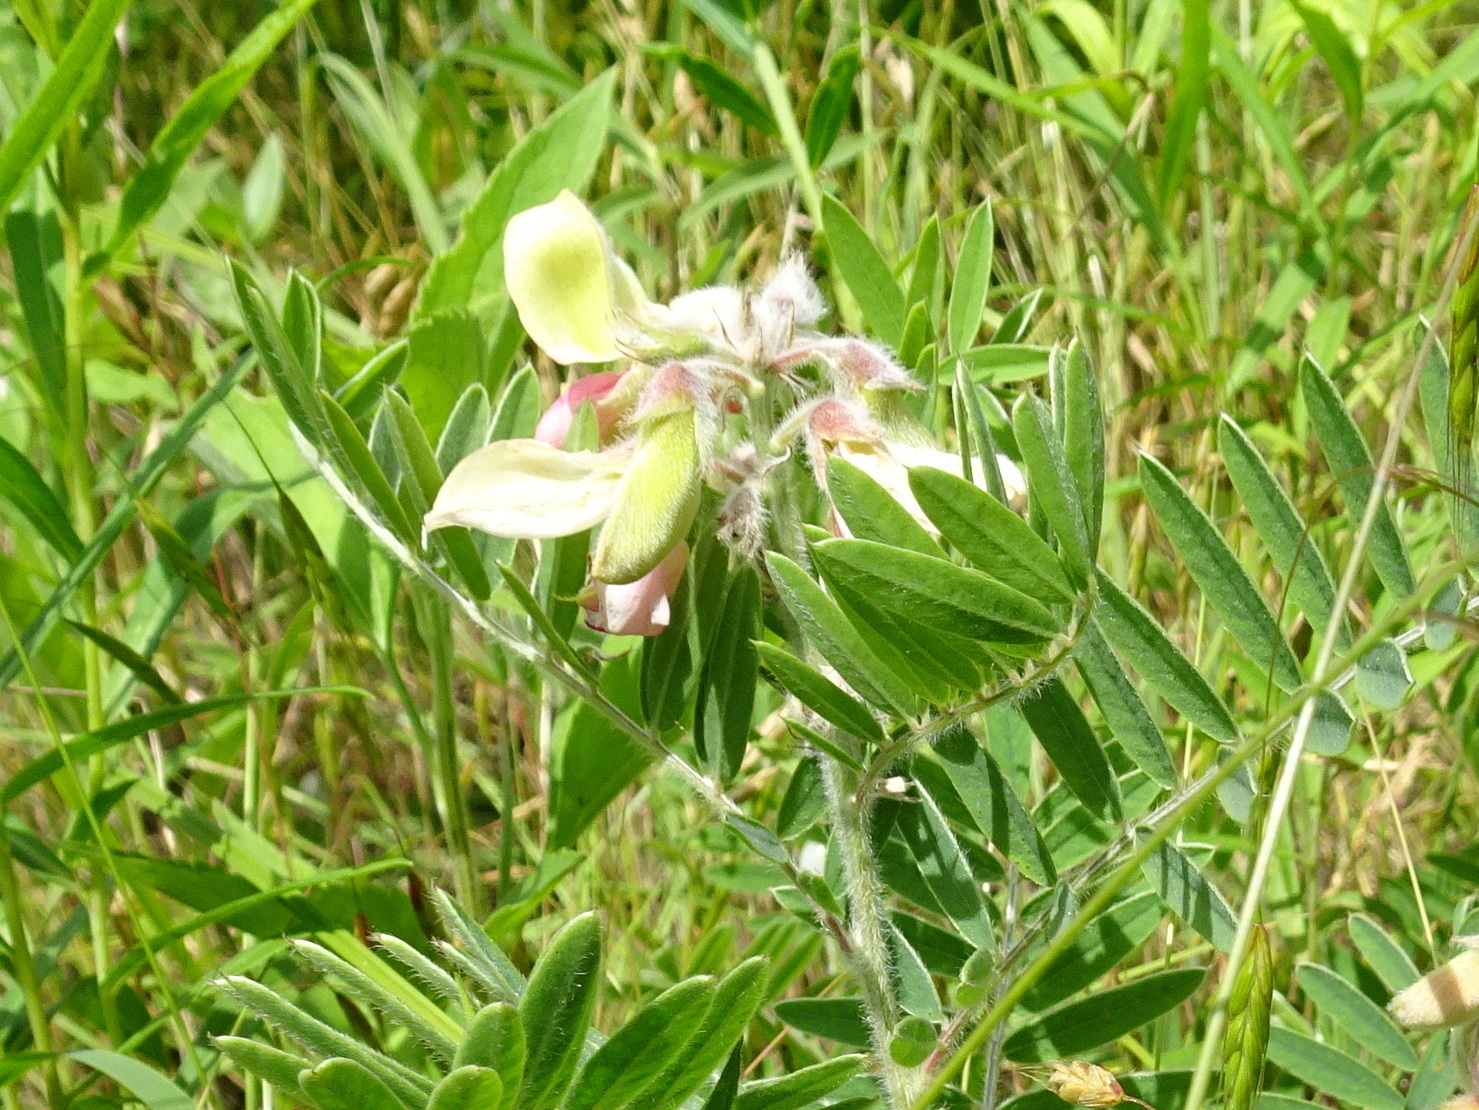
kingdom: Plantae
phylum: Tracheophyta
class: Magnoliopsida
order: Fabales
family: Fabaceae
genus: Tephrosia
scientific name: Tephrosia virginiana
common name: Rabbit-pea
